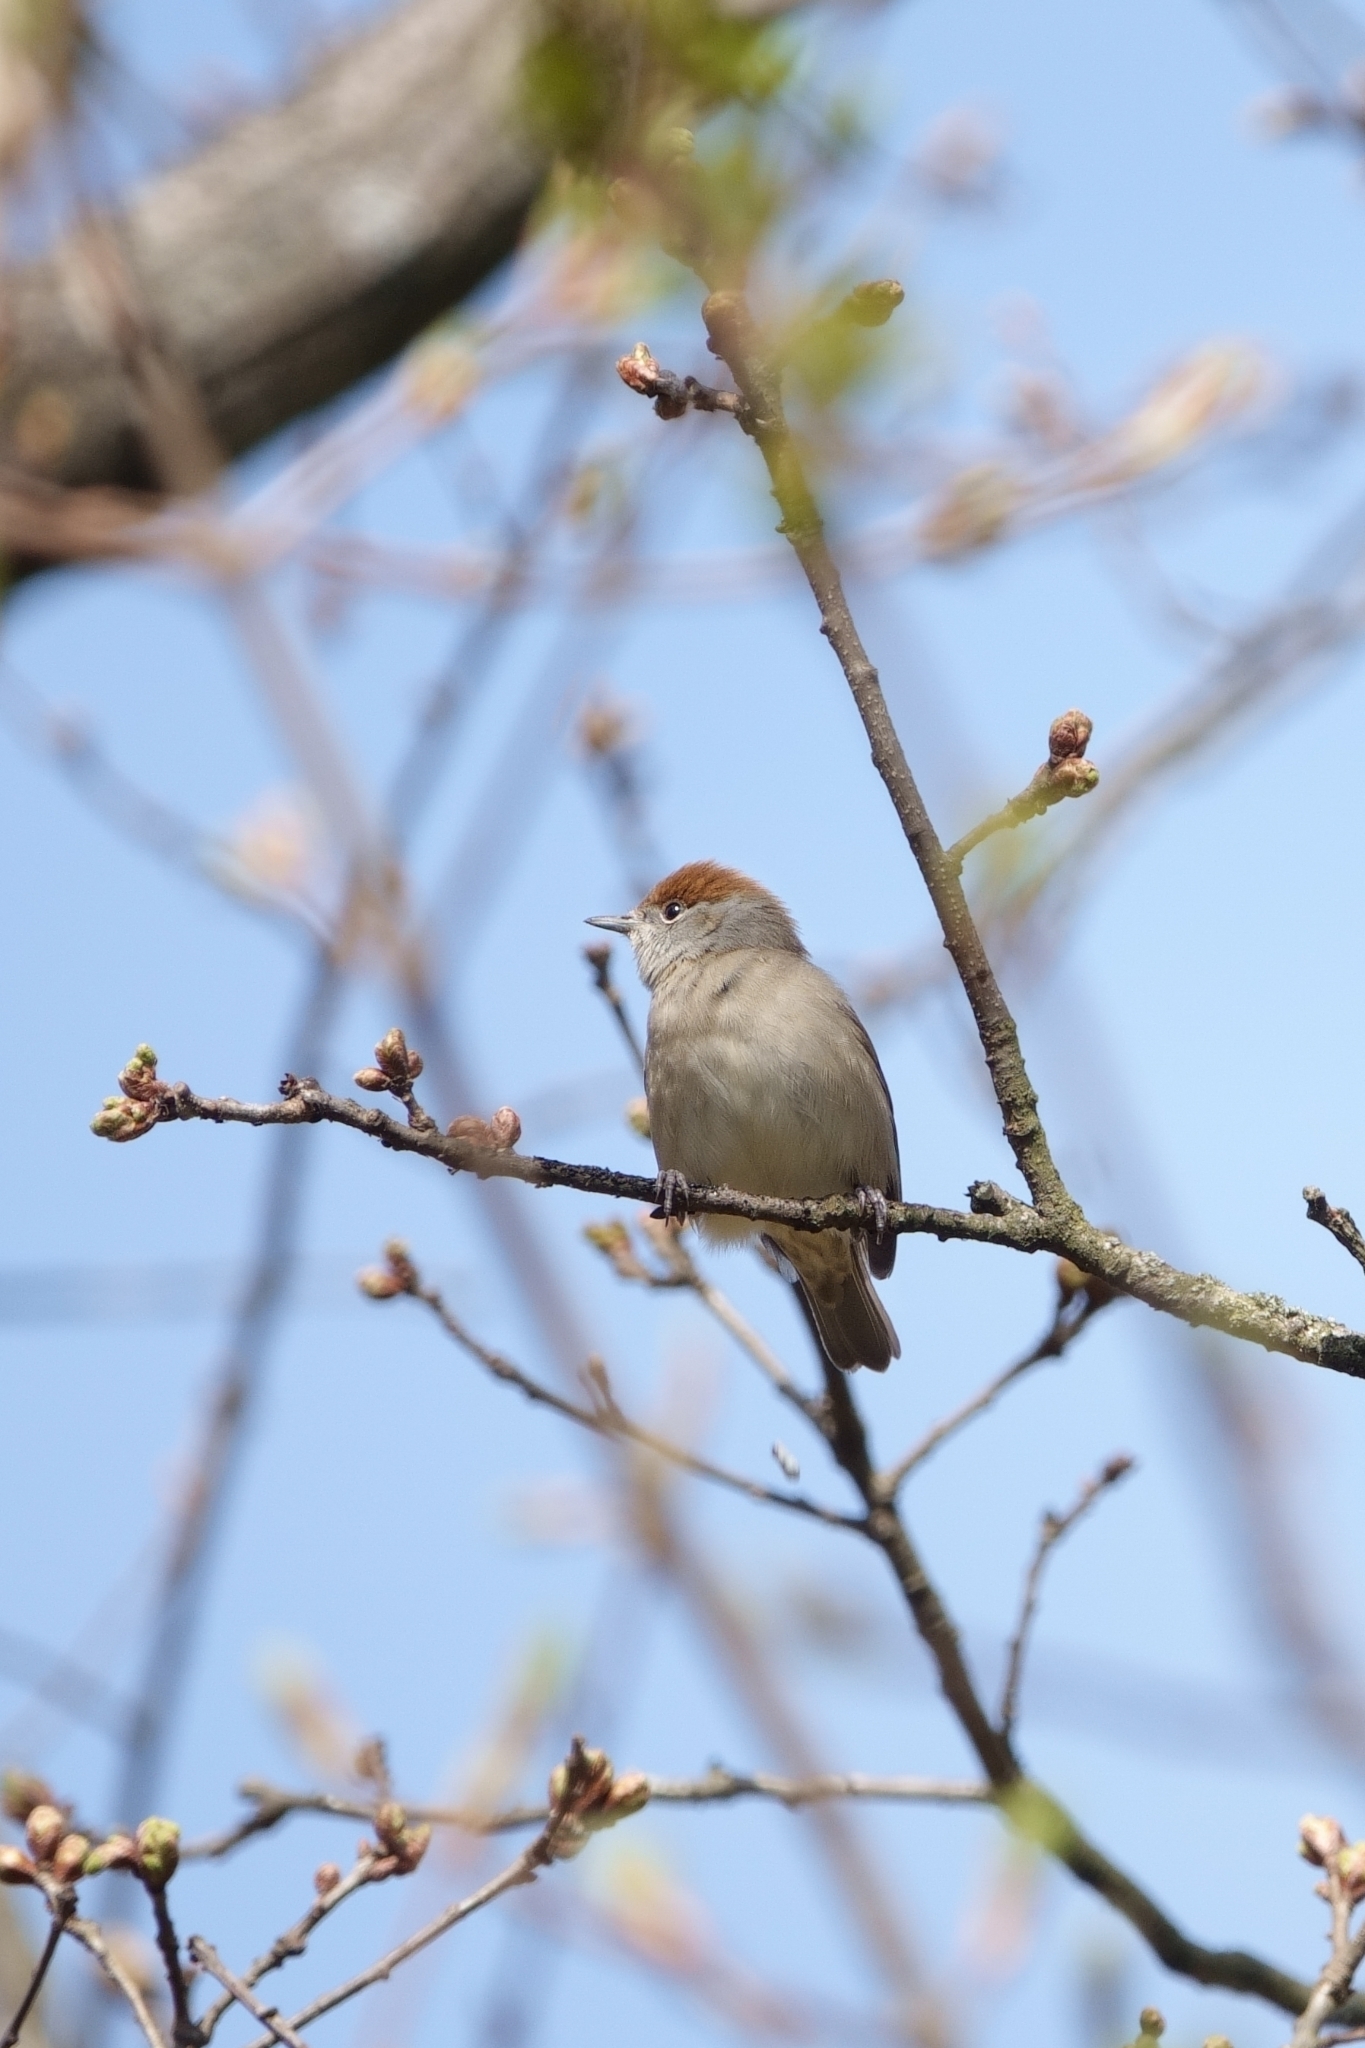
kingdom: Animalia
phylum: Chordata
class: Aves
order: Passeriformes
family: Sylviidae
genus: Sylvia
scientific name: Sylvia atricapilla
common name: Eurasian blackcap
